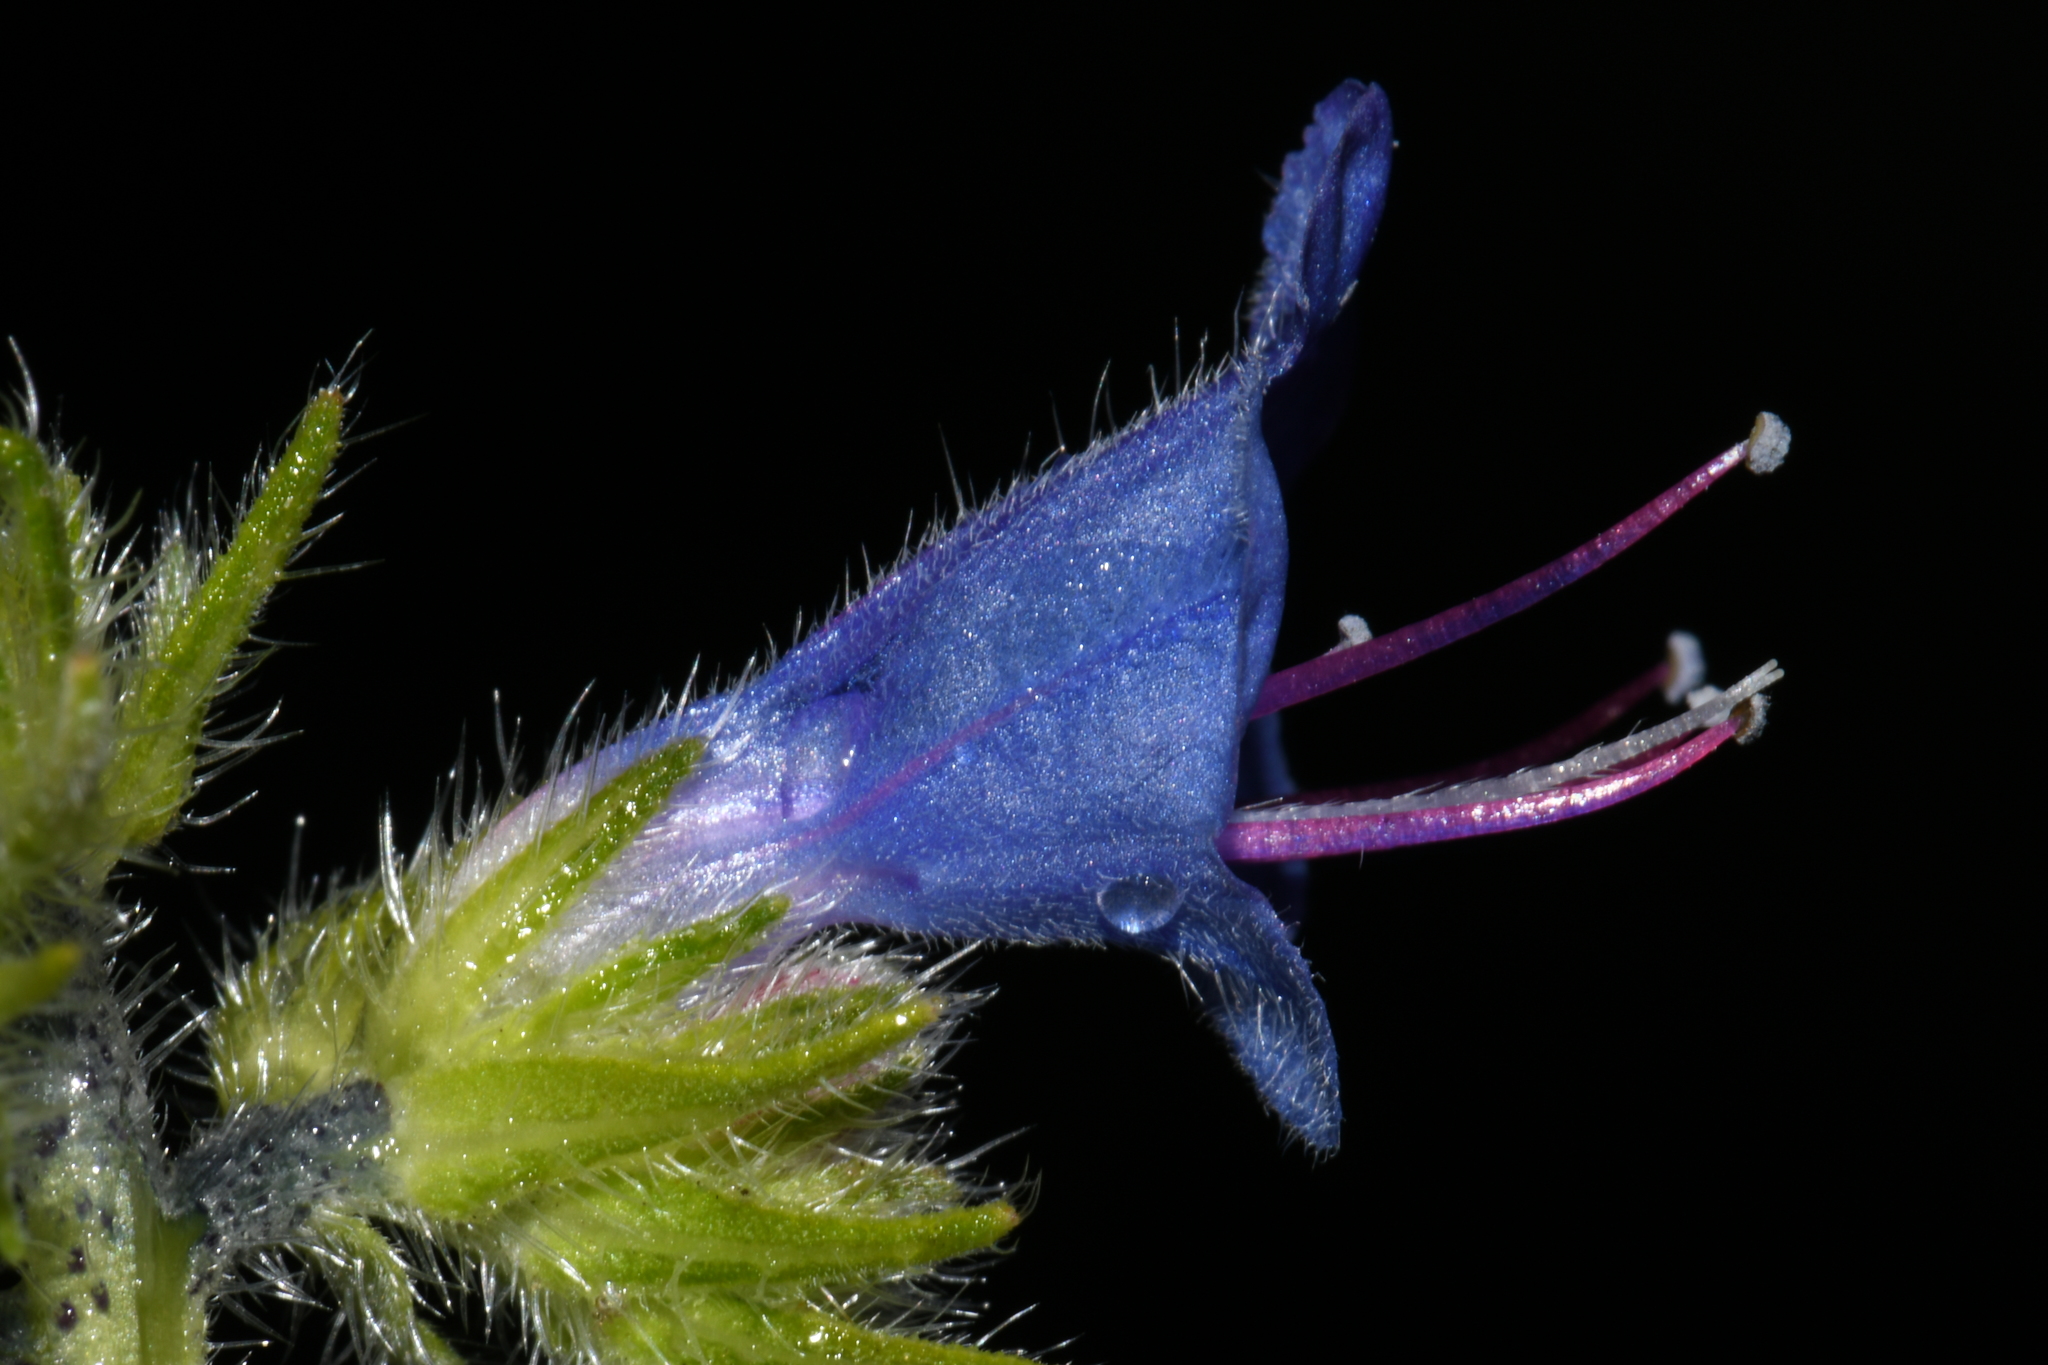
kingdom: Plantae
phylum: Tracheophyta
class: Magnoliopsida
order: Boraginales
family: Boraginaceae
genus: Echium
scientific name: Echium vulgare
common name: Common viper's bugloss
